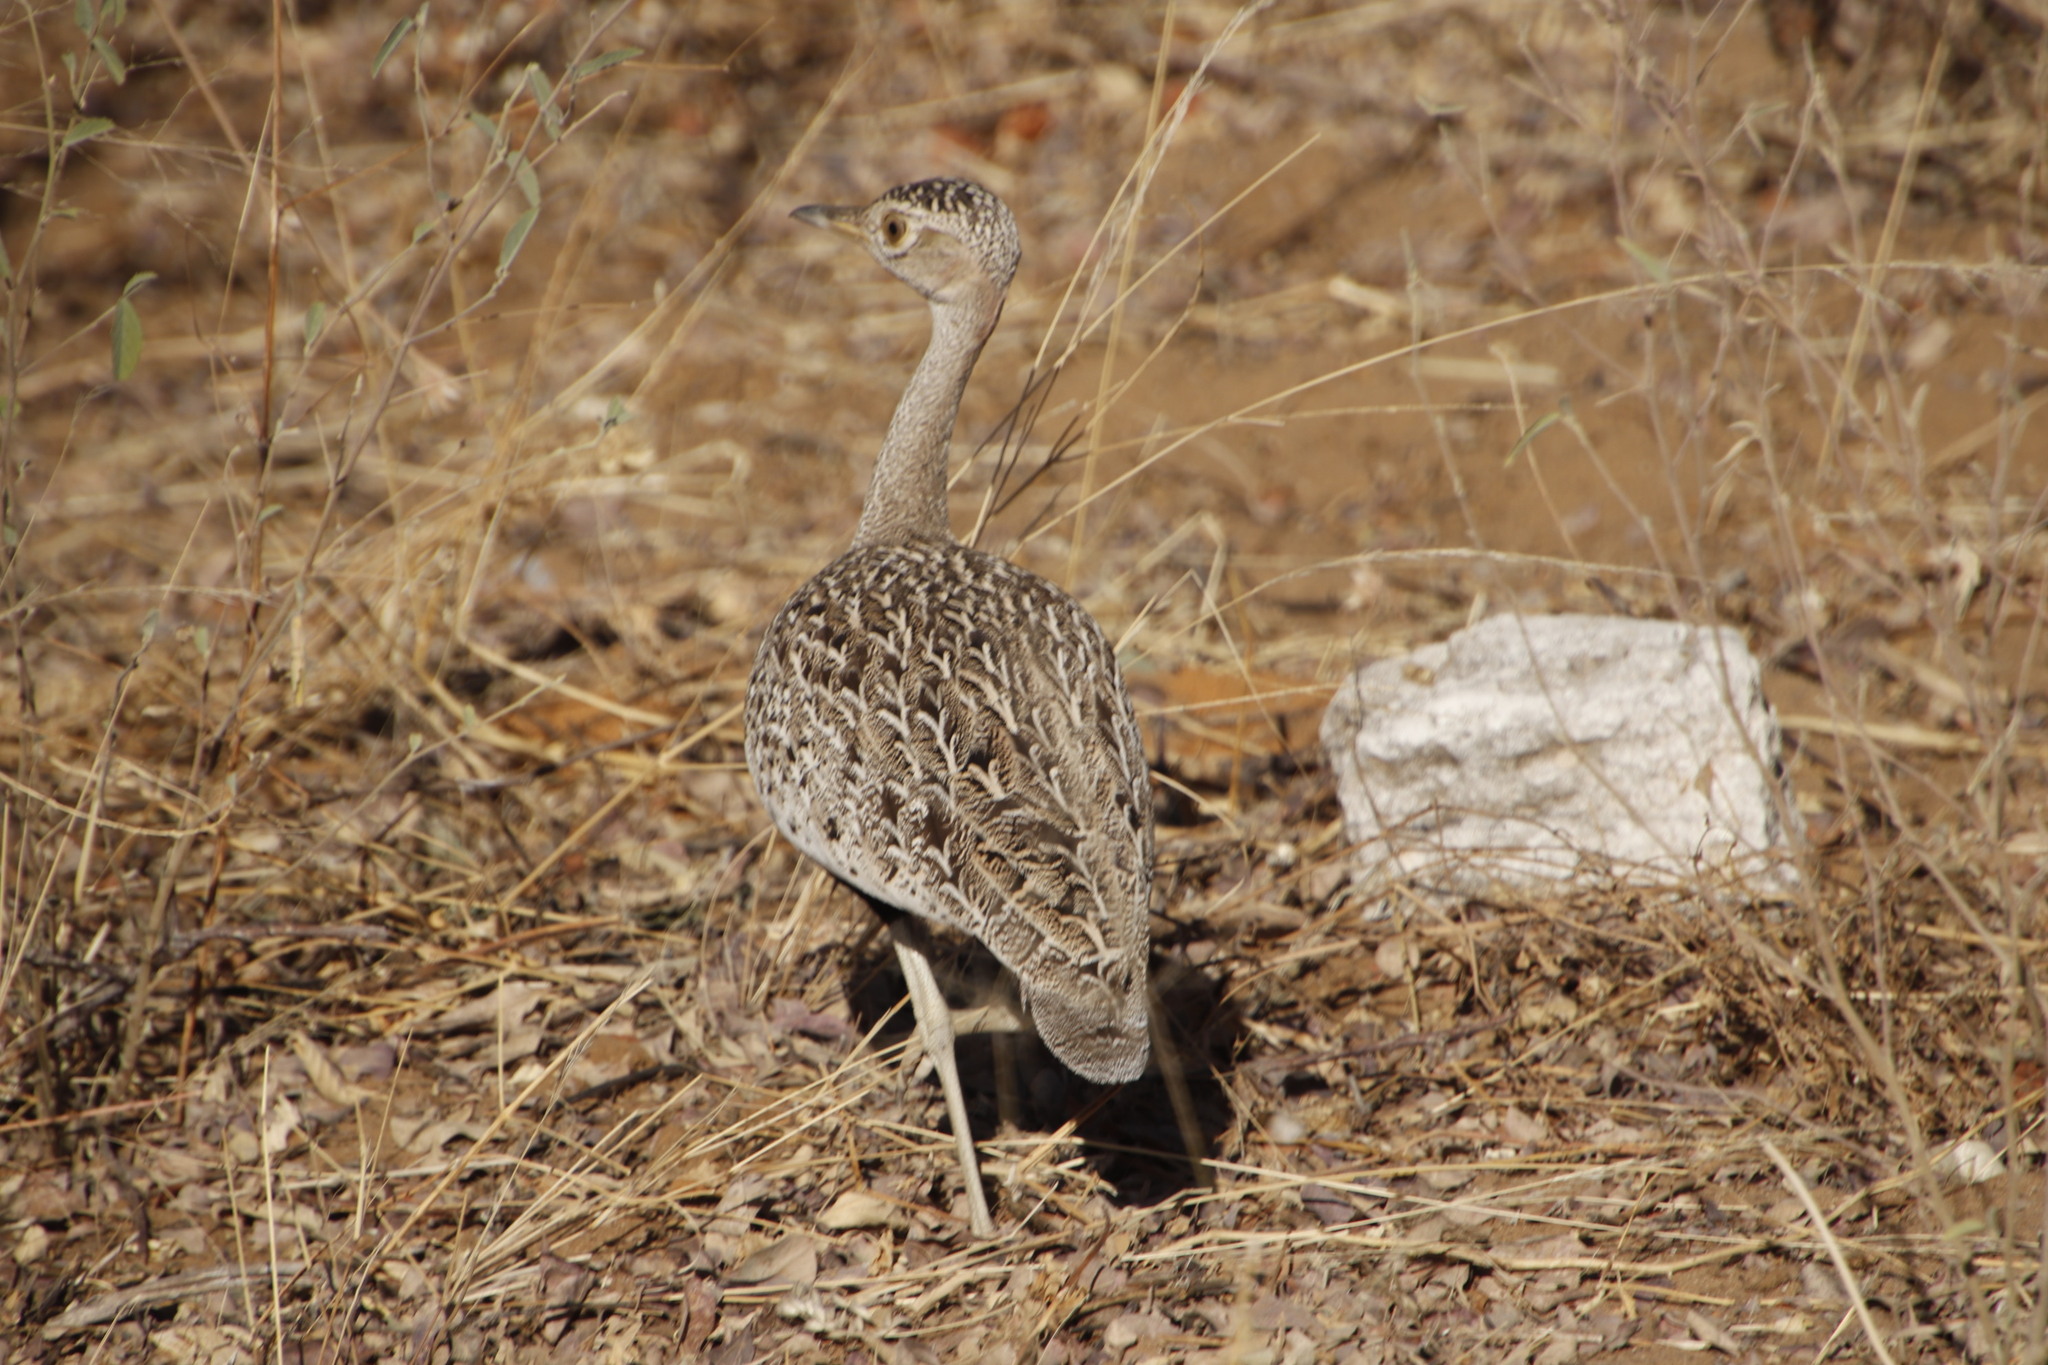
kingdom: Animalia
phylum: Chordata
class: Aves
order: Otidiformes
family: Otididae
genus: Lophotis
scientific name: Lophotis ruficrista
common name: Red-crested korhaan
